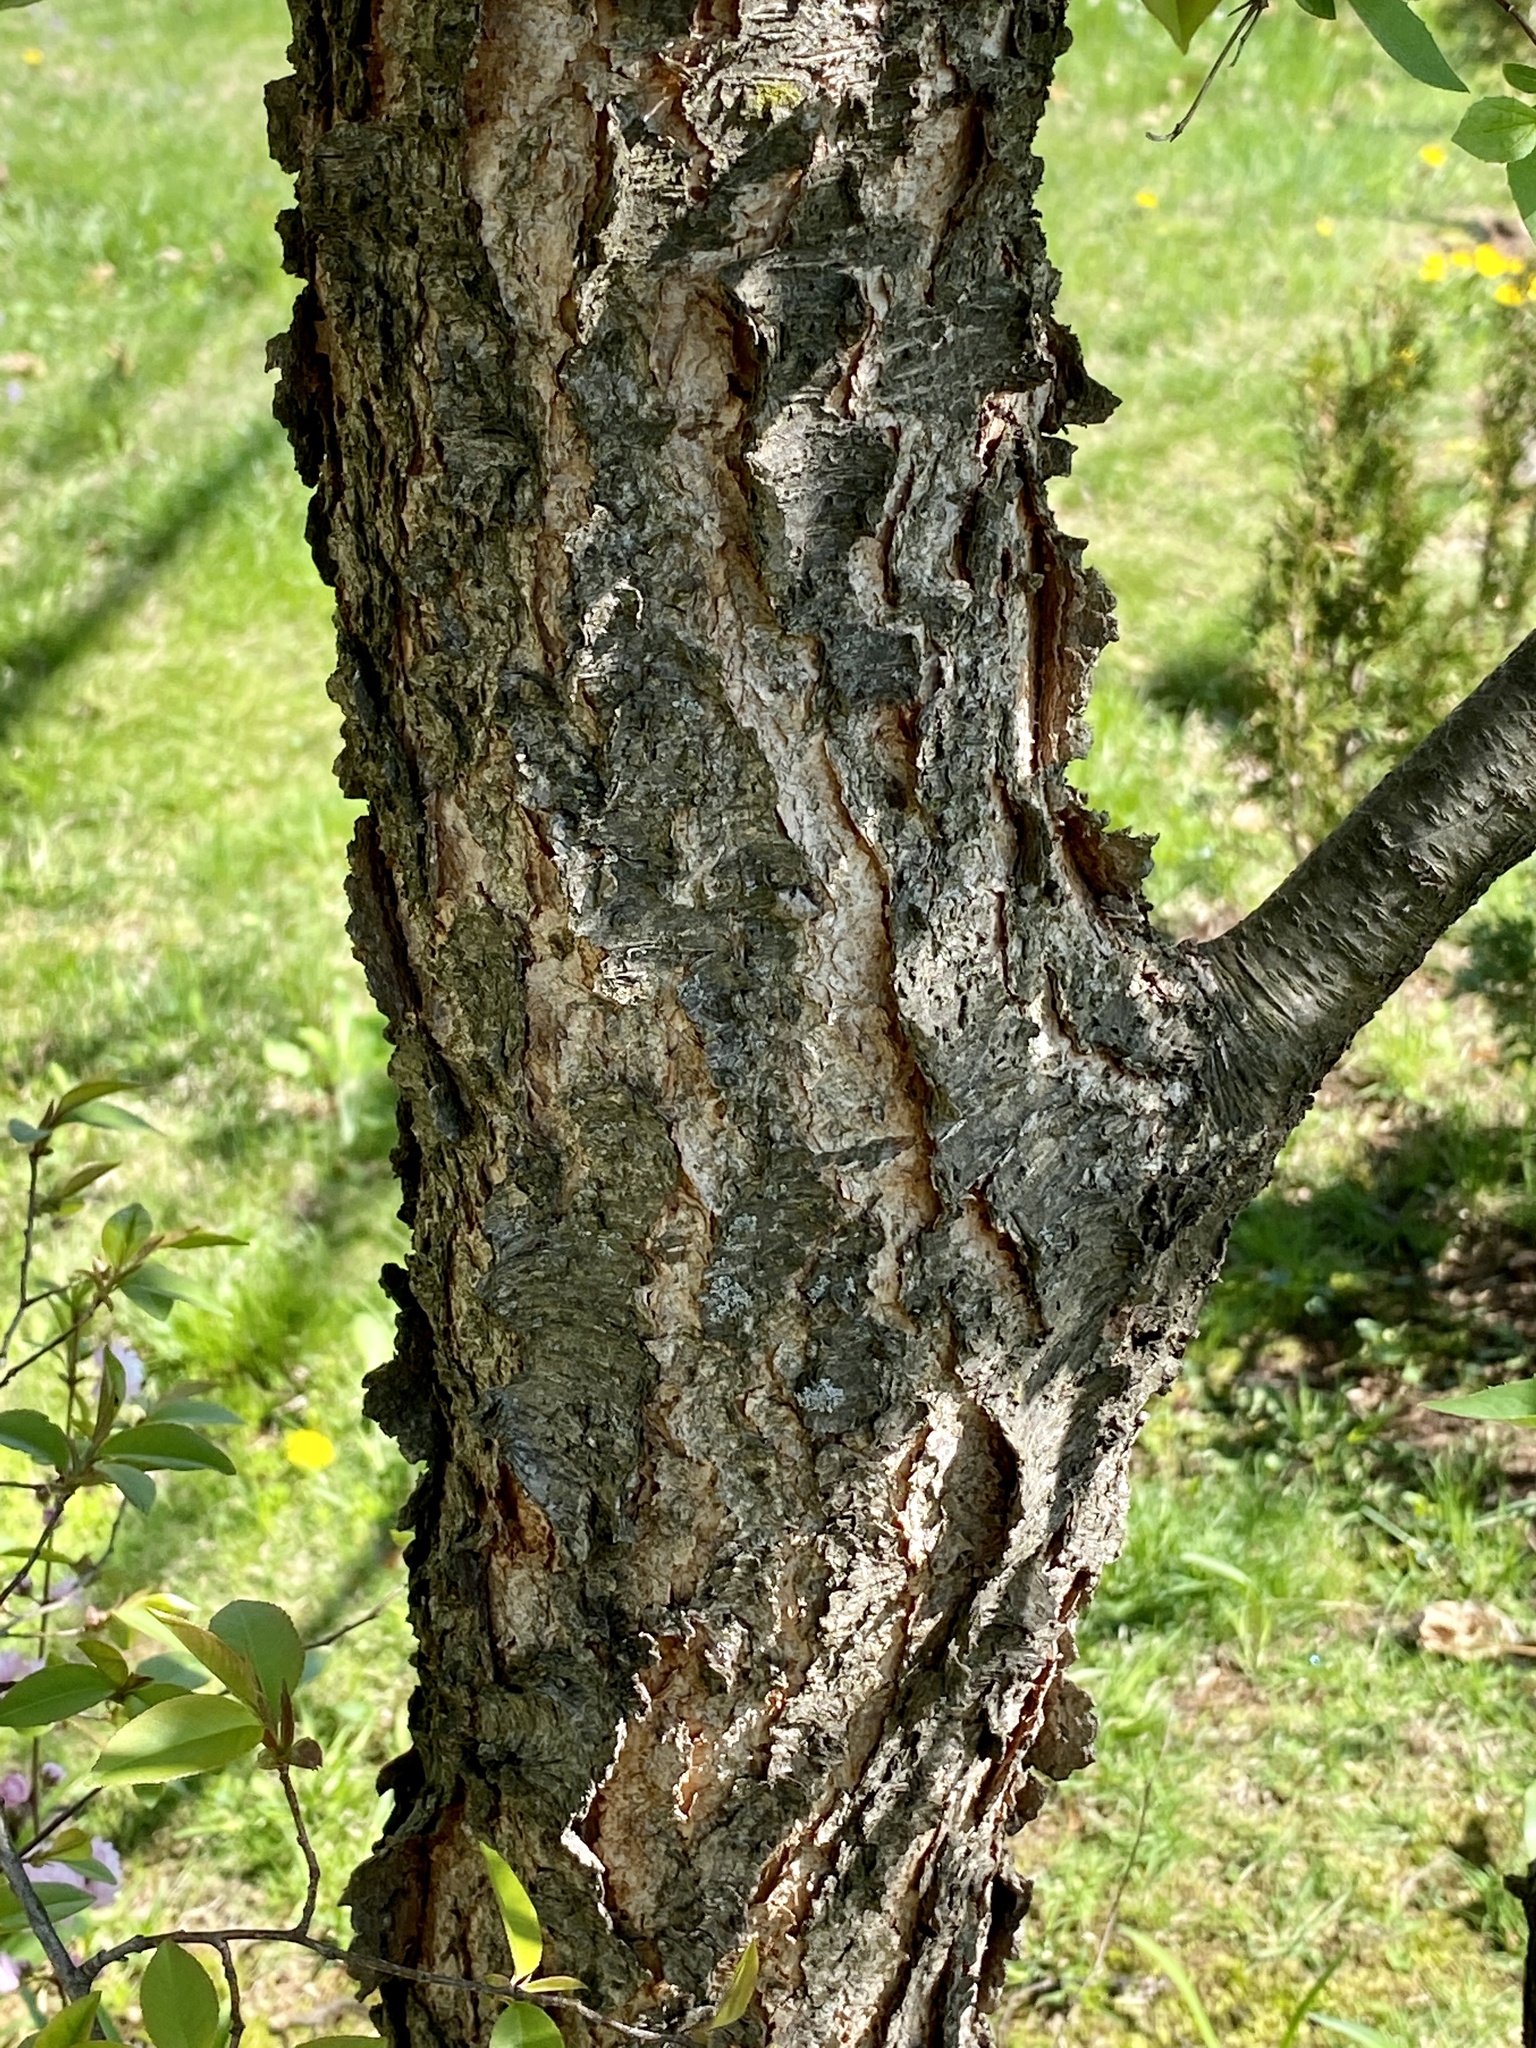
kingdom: Plantae
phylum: Tracheophyta
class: Magnoliopsida
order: Rosales
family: Rosaceae
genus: Prunus
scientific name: Prunus serotina
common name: Black cherry
